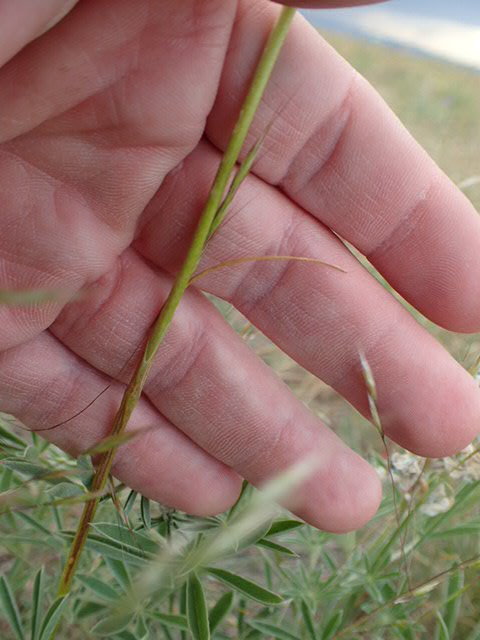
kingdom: Plantae
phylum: Tracheophyta
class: Liliopsida
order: Liliales
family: Liliaceae
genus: Calochortus
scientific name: Calochortus eurycarpus
